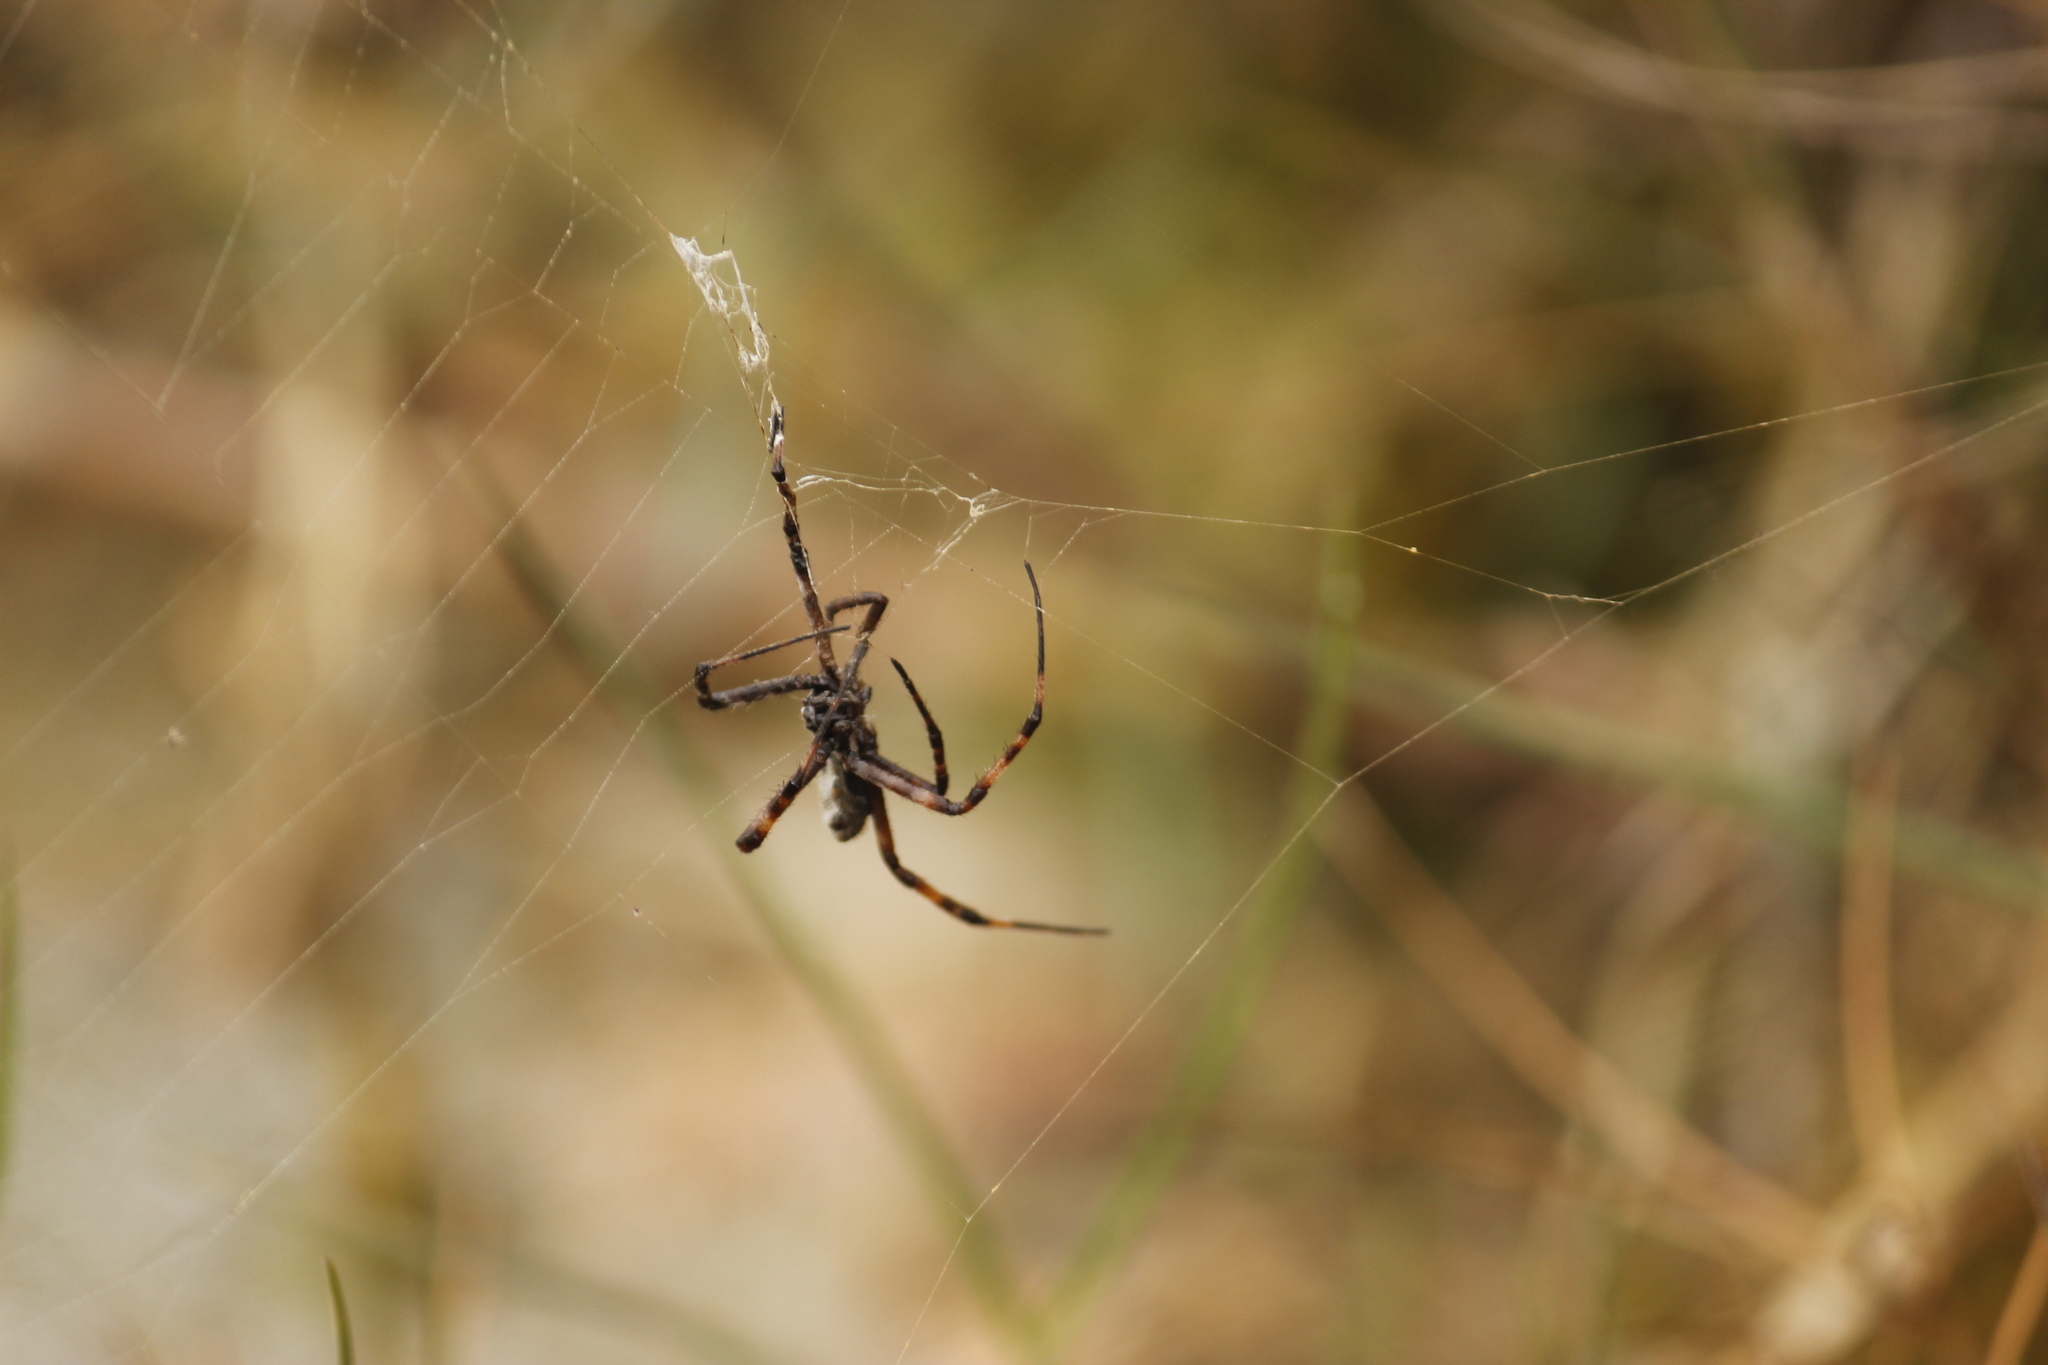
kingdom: Animalia
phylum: Arthropoda
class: Arachnida
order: Araneae
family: Araneidae
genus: Argiope
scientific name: Argiope argentata
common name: Orb weavers
